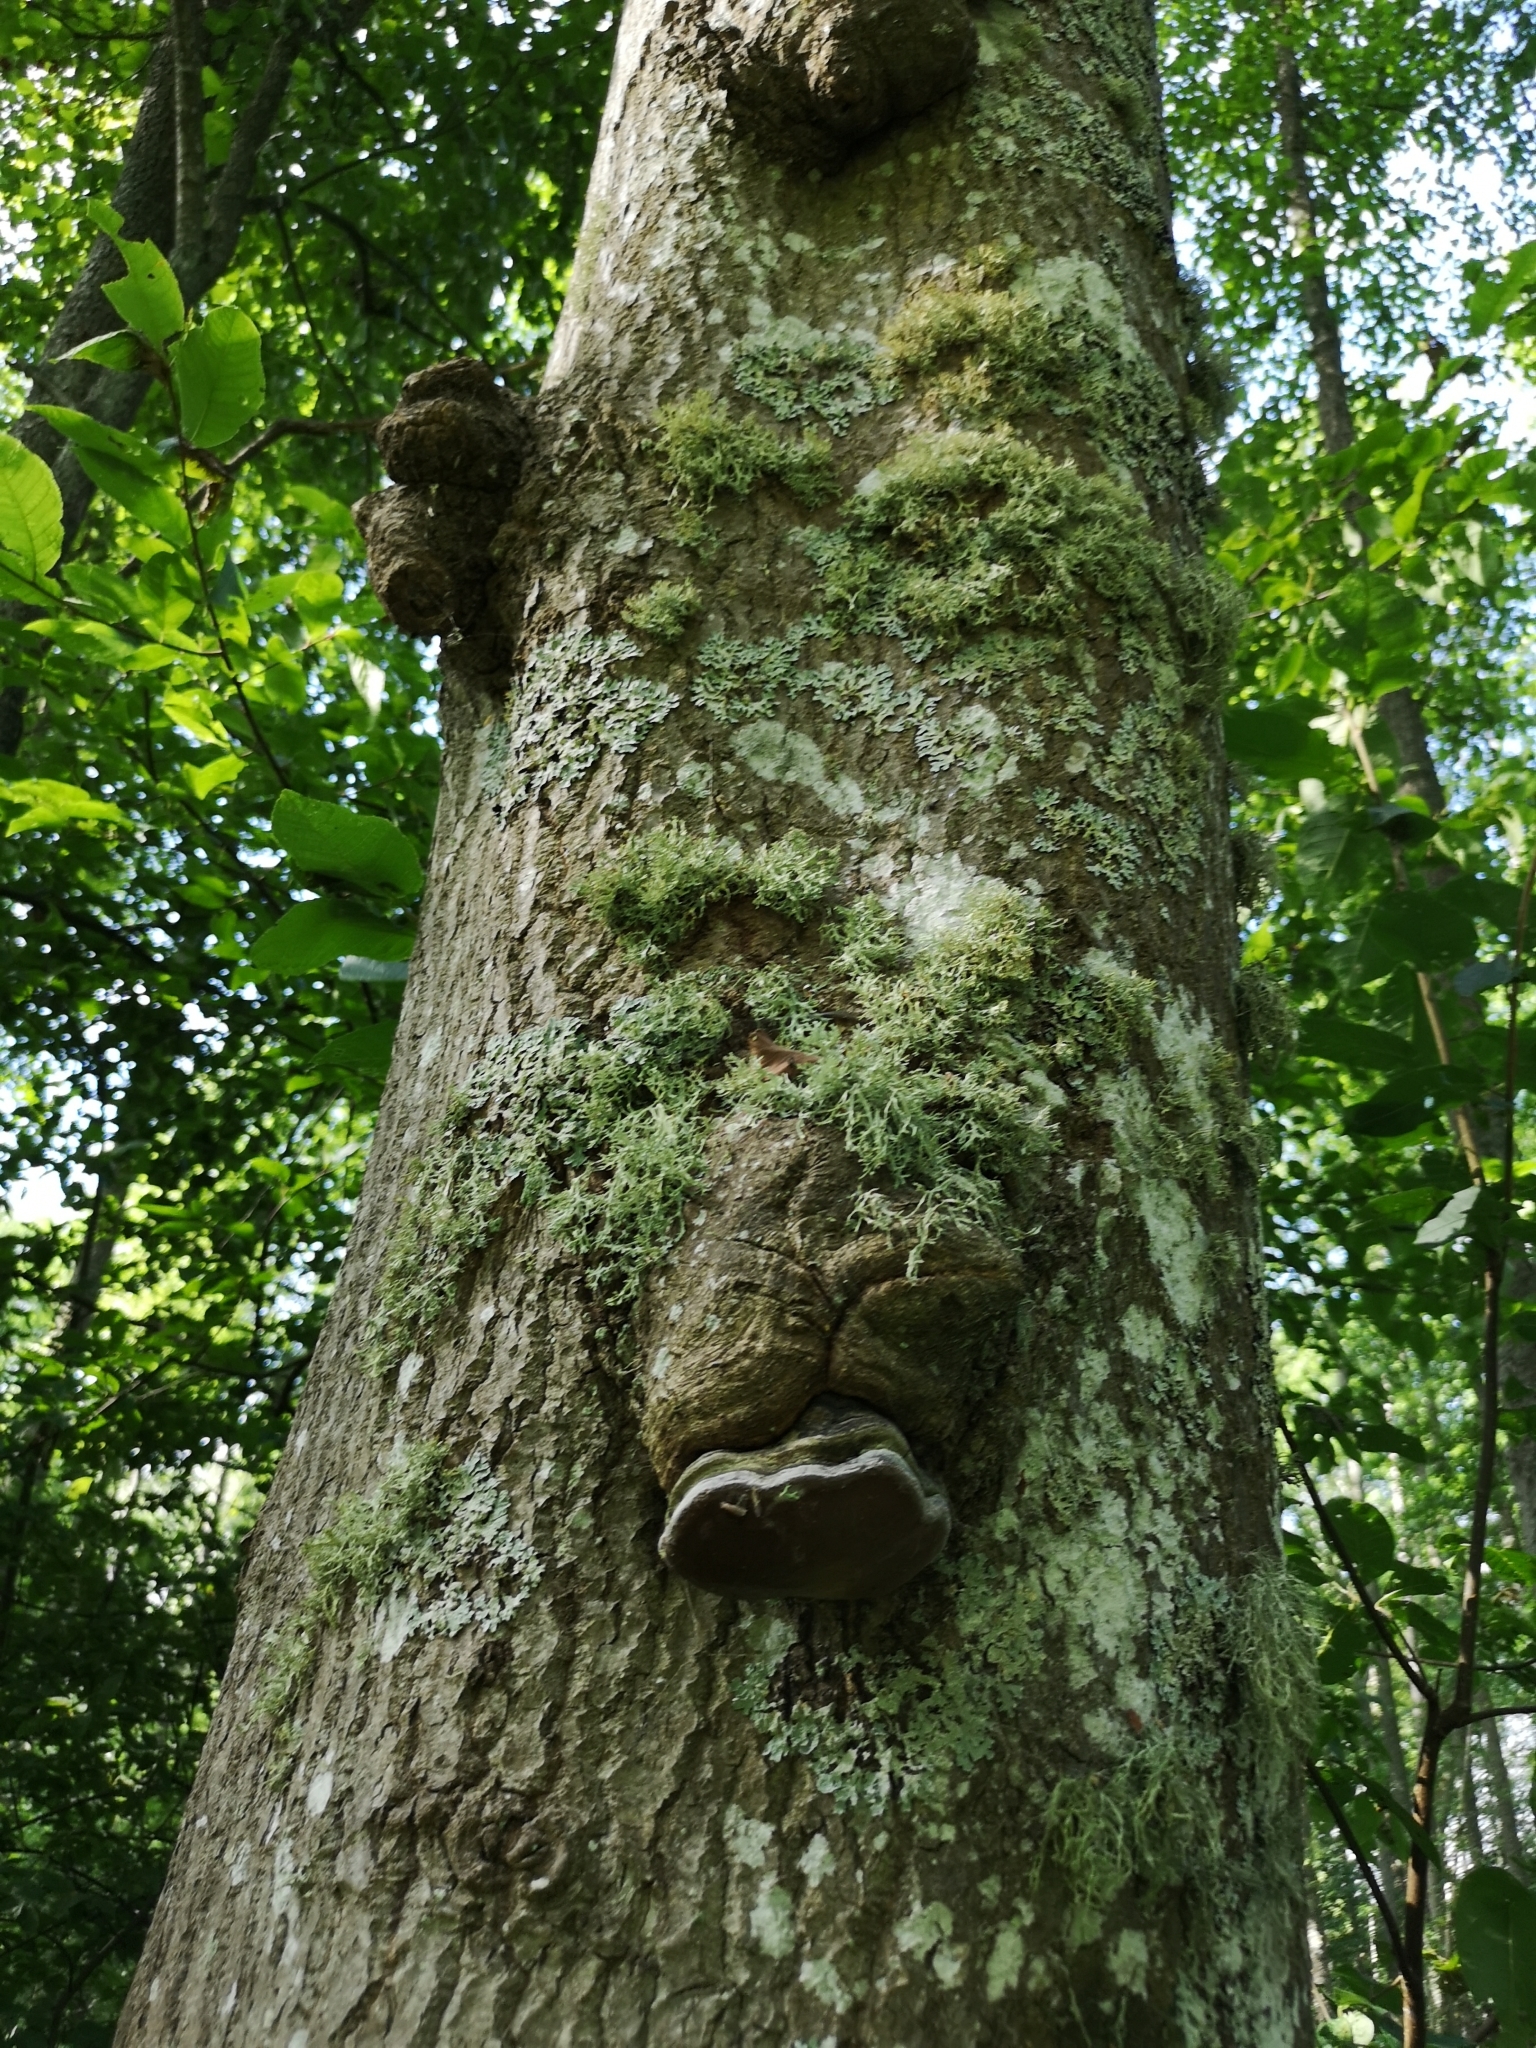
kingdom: Fungi
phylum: Basidiomycota
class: Agaricomycetes
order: Hymenochaetales
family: Hymenochaetaceae
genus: Phellinus
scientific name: Phellinus tremulae
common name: Aspen bracket
